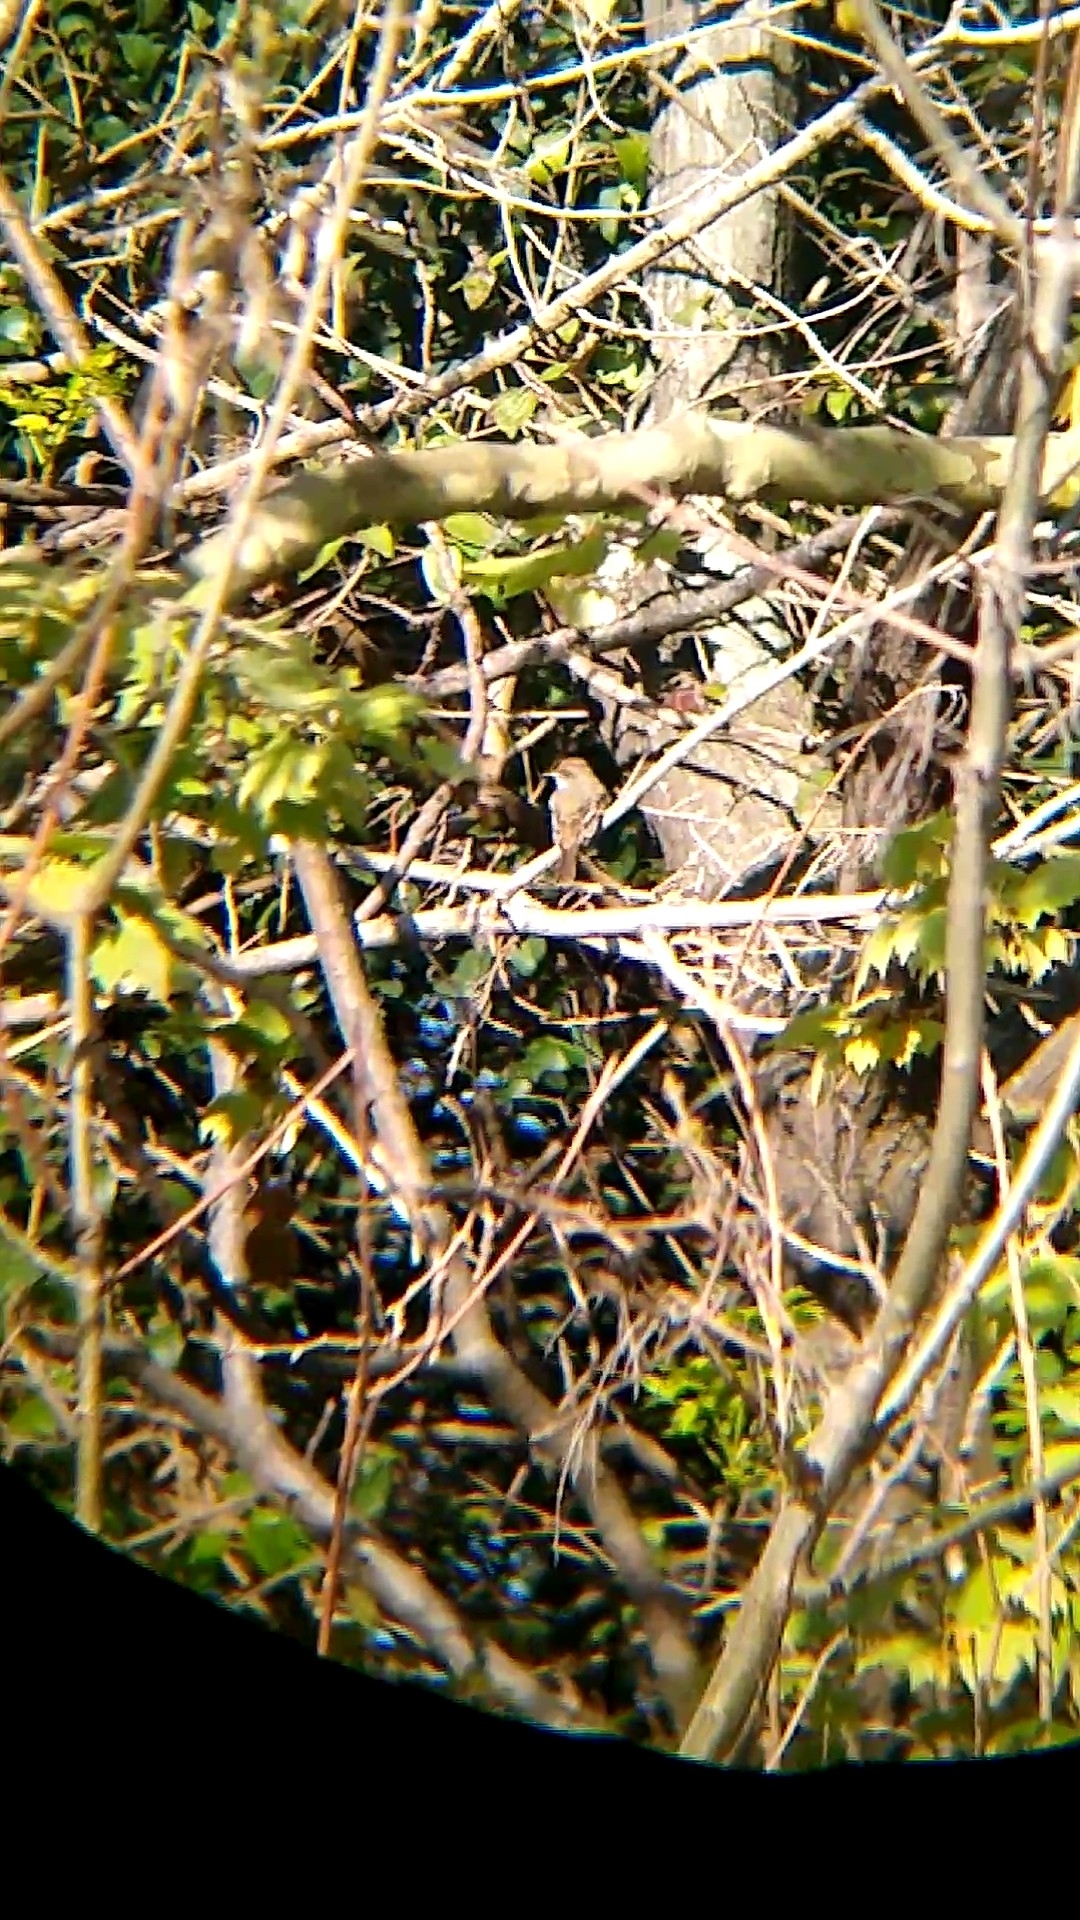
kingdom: Animalia
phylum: Chordata
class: Aves
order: Passeriformes
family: Tyrannidae
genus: Myiarchus
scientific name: Myiarchus tyrannulus
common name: Brown-crested flycatcher
